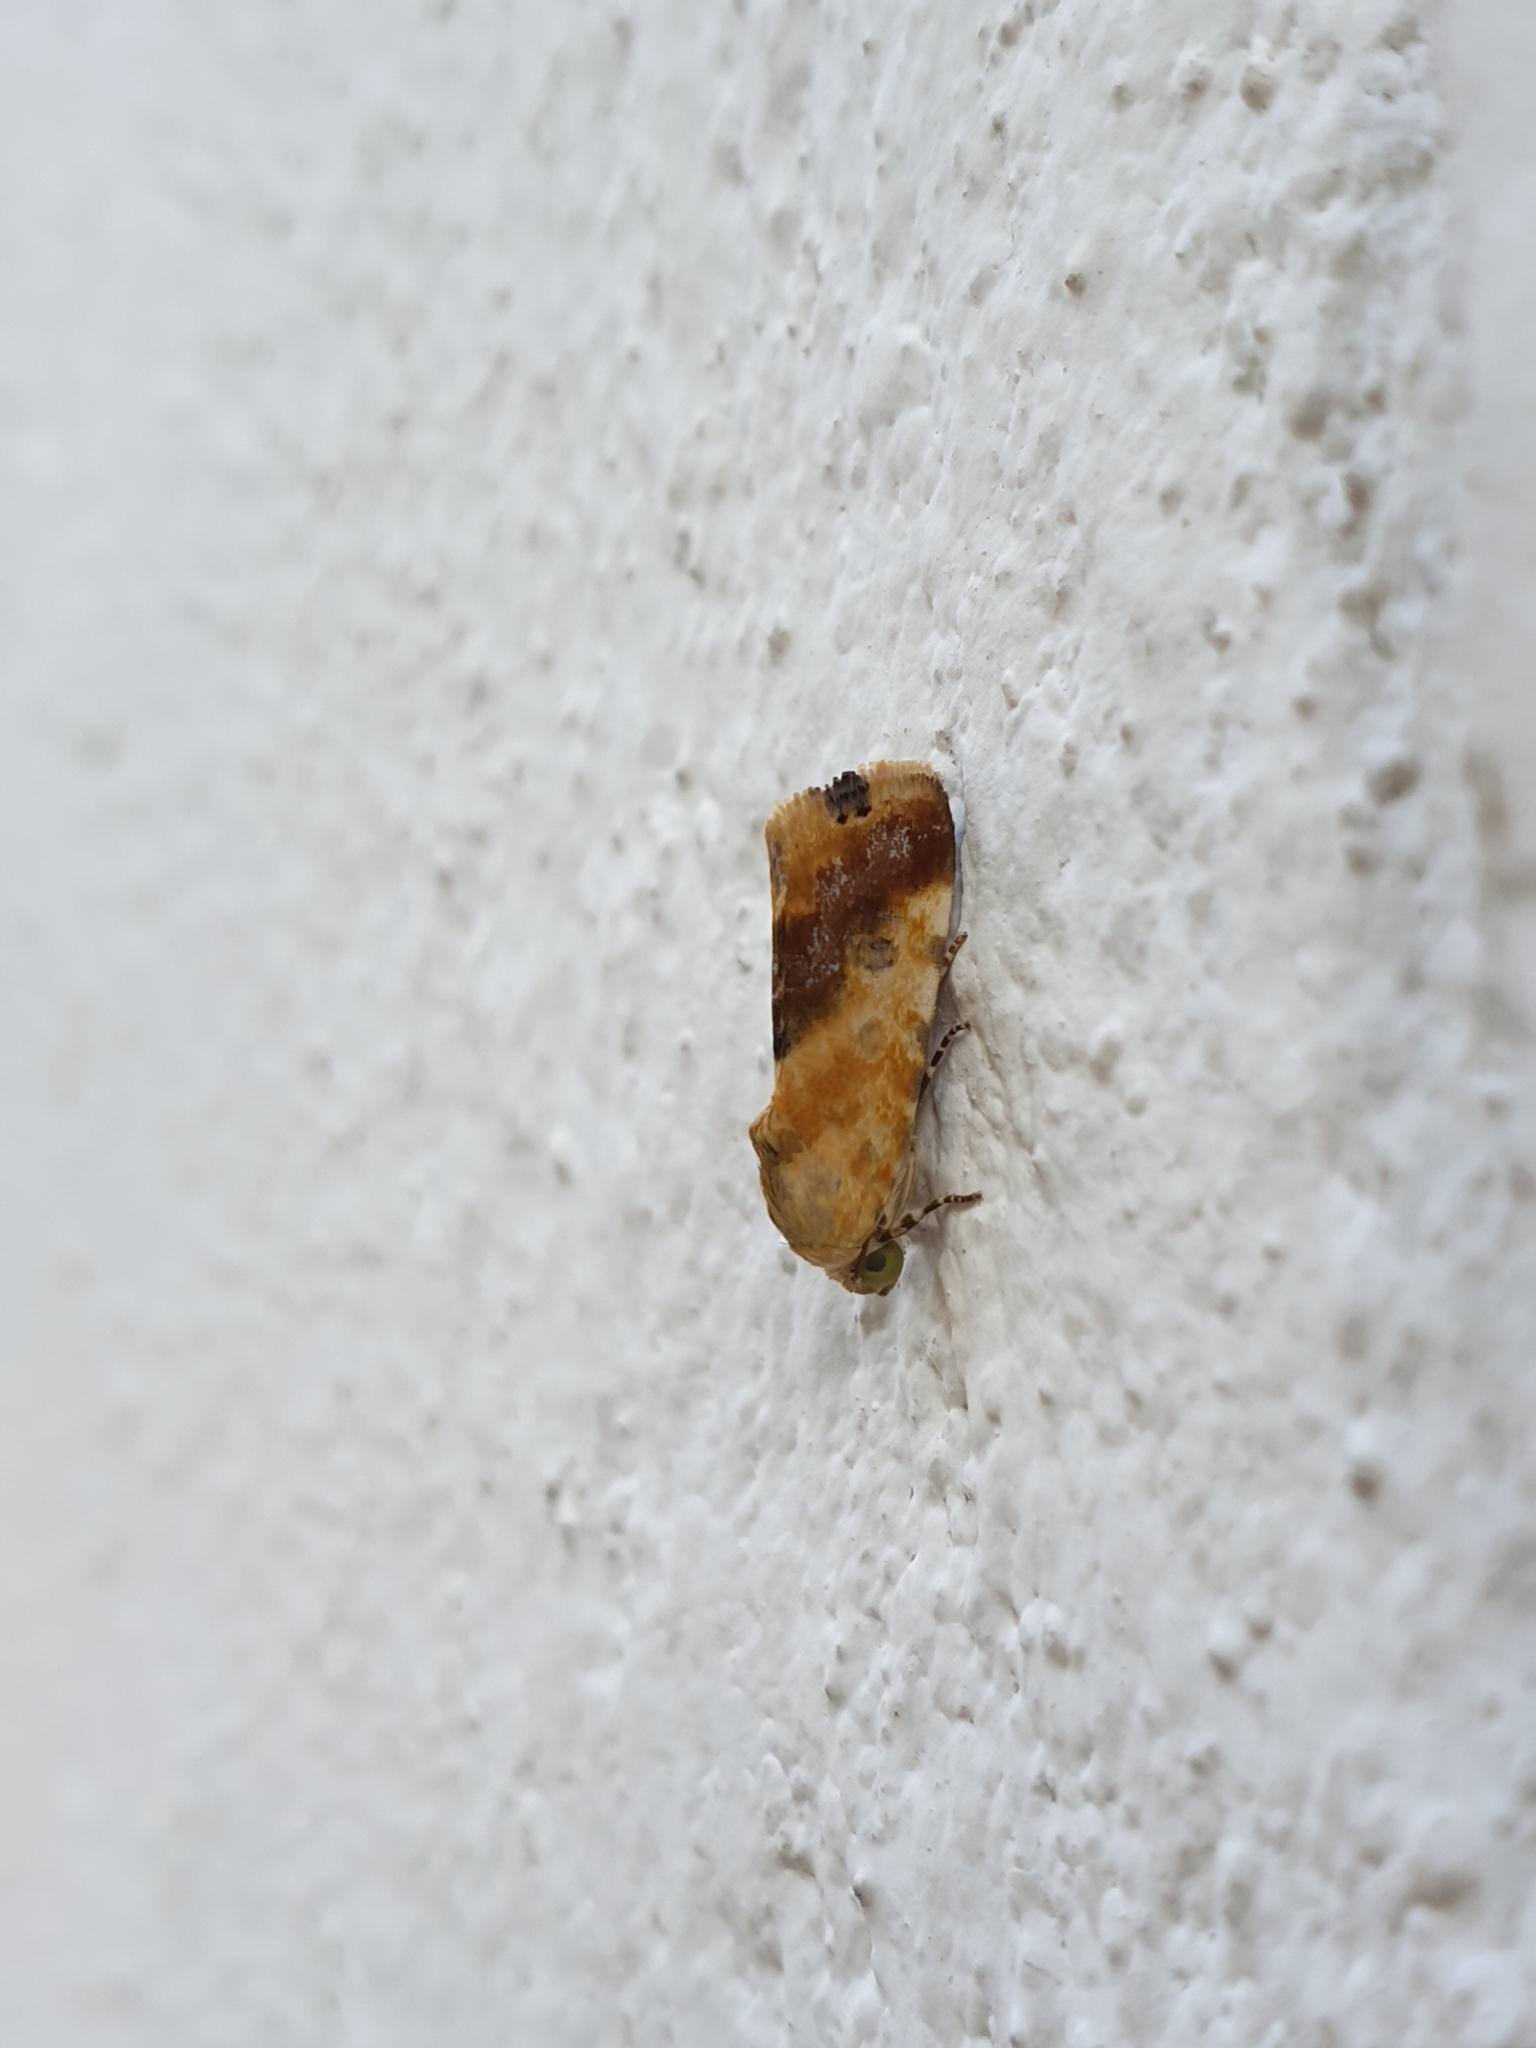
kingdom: Animalia
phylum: Arthropoda
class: Insecta
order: Lepidoptera
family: Noctuidae
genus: Acontia
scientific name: Acontia marmoralis
